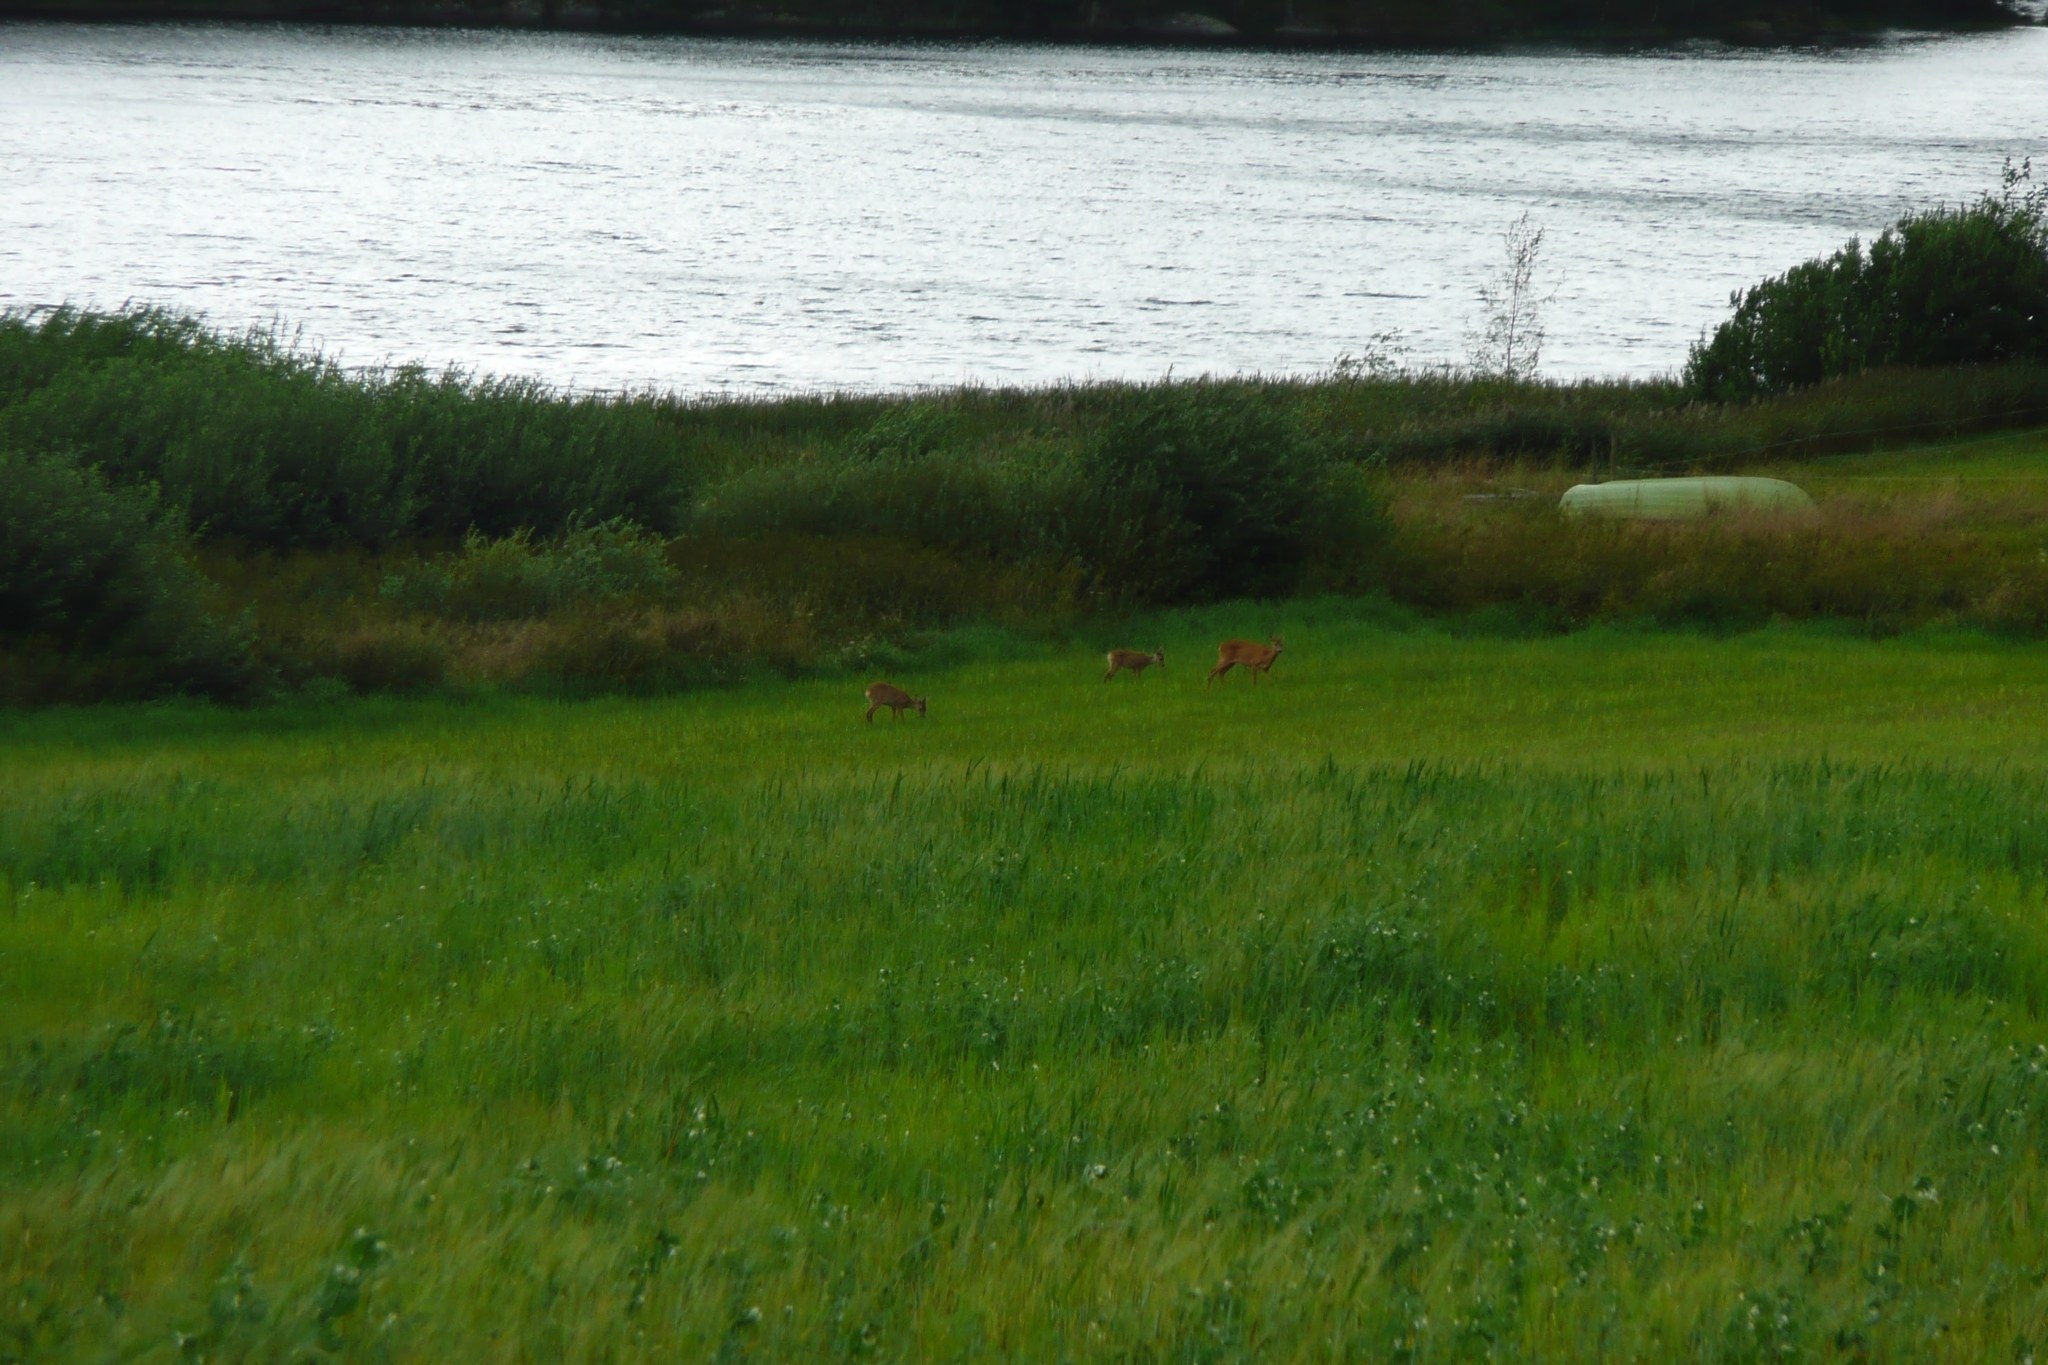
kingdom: Animalia
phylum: Chordata
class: Mammalia
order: Artiodactyla
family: Cervidae
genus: Capreolus
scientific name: Capreolus capreolus
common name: Western roe deer
